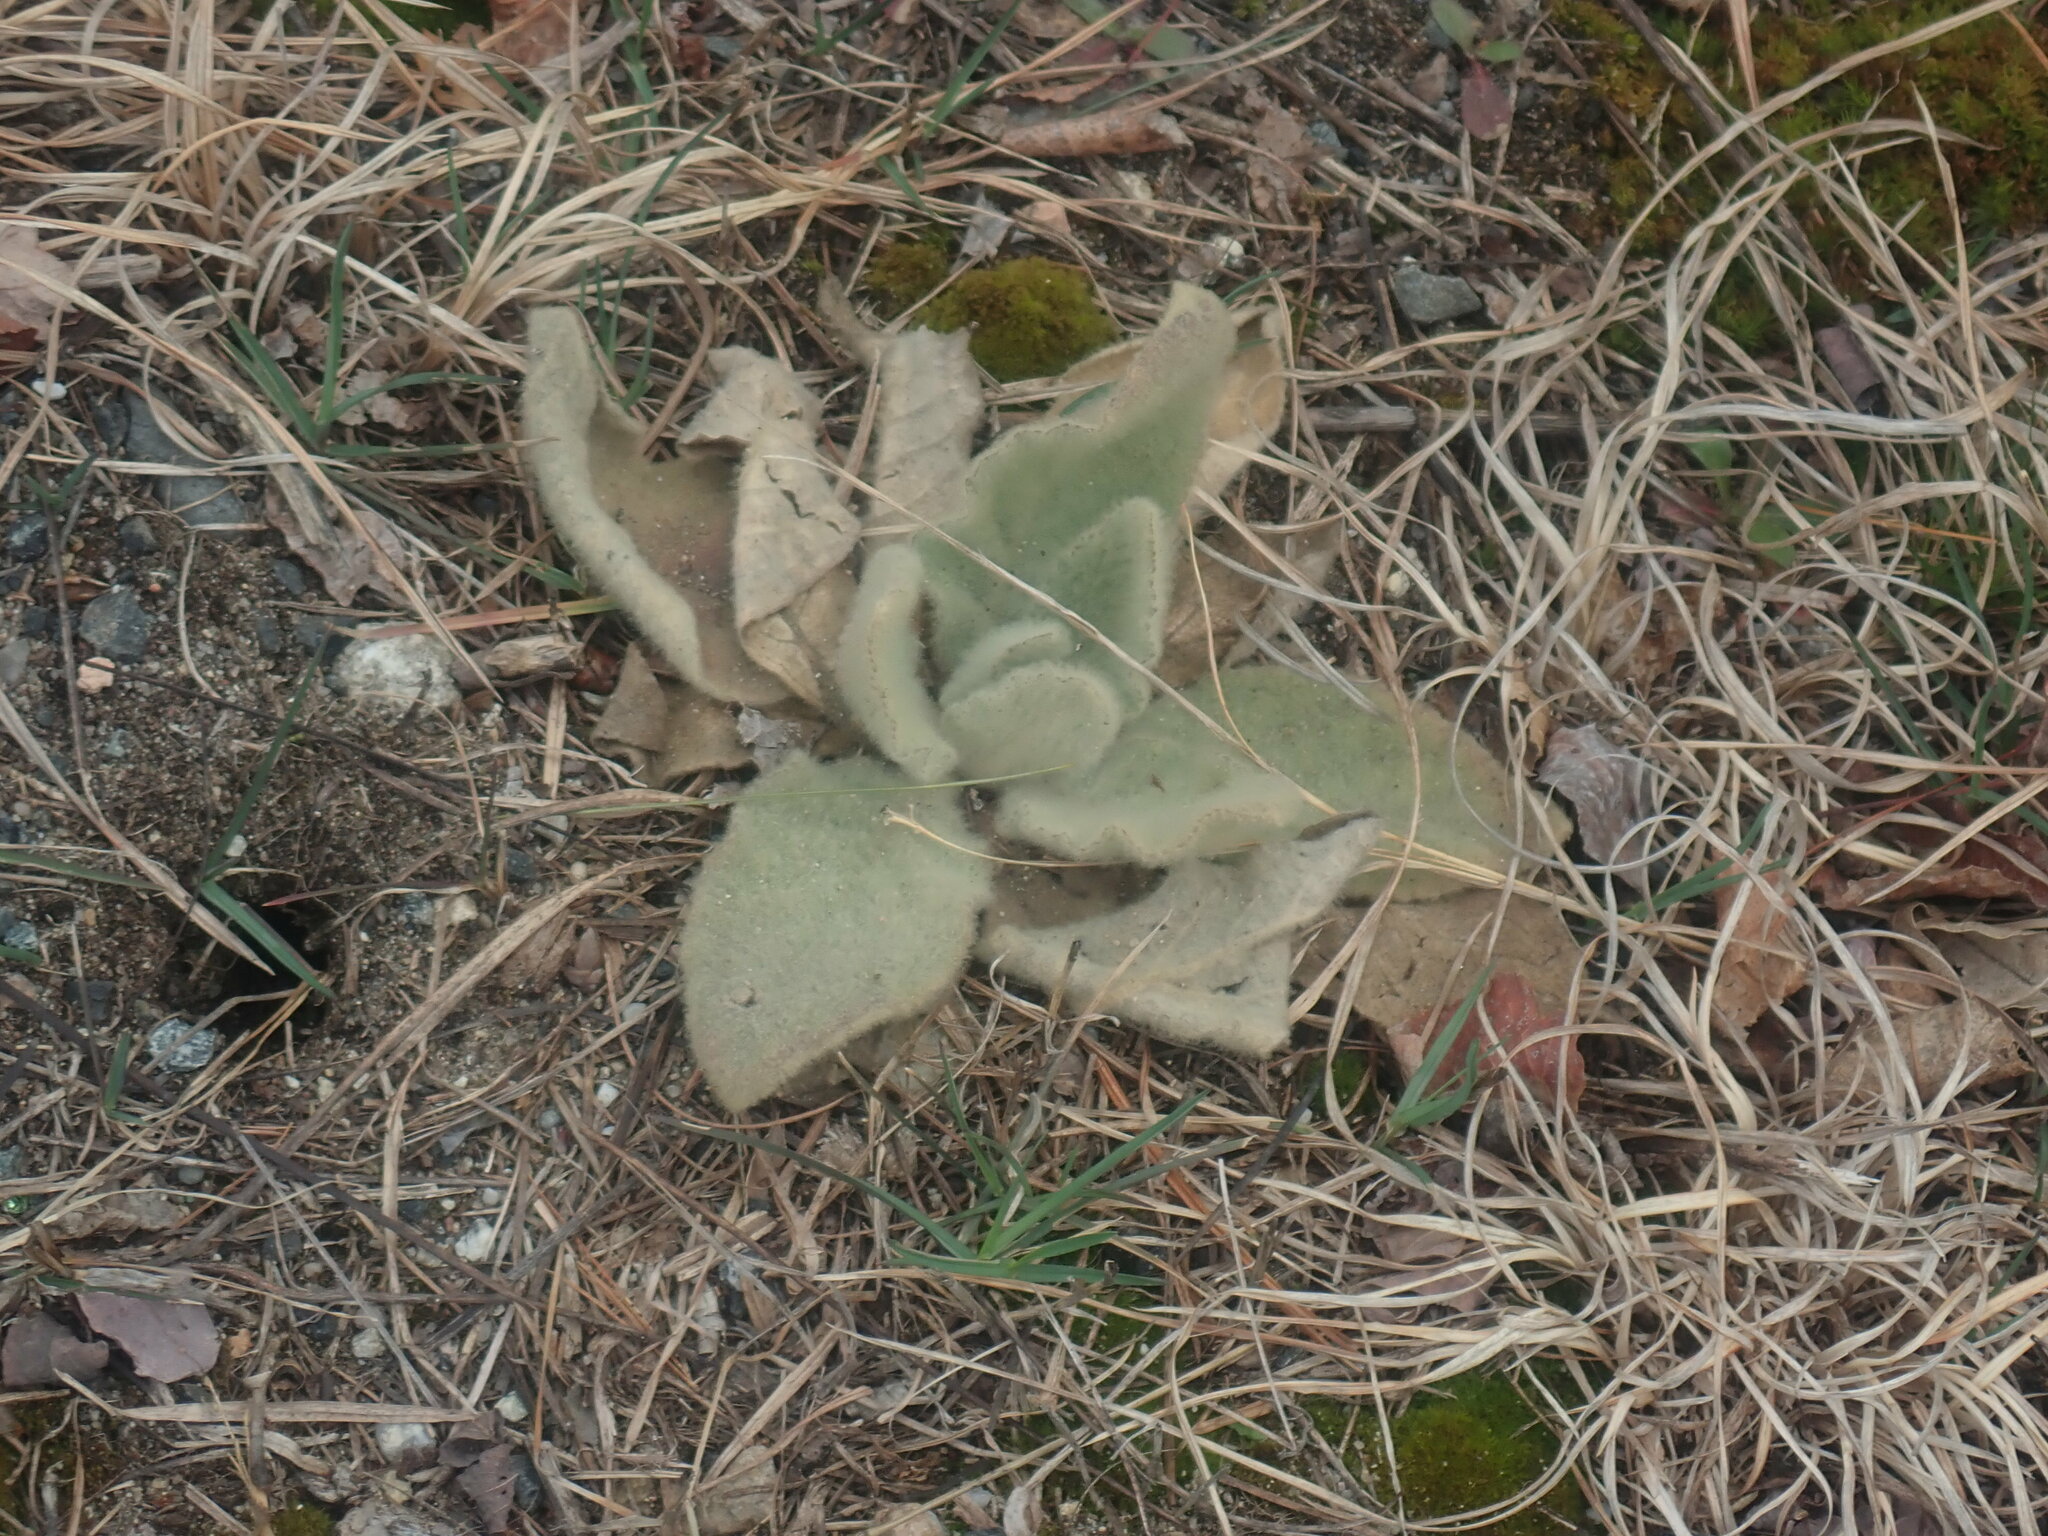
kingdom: Plantae
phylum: Tracheophyta
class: Magnoliopsida
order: Lamiales
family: Scrophulariaceae
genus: Verbascum
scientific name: Verbascum thapsus
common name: Common mullein
